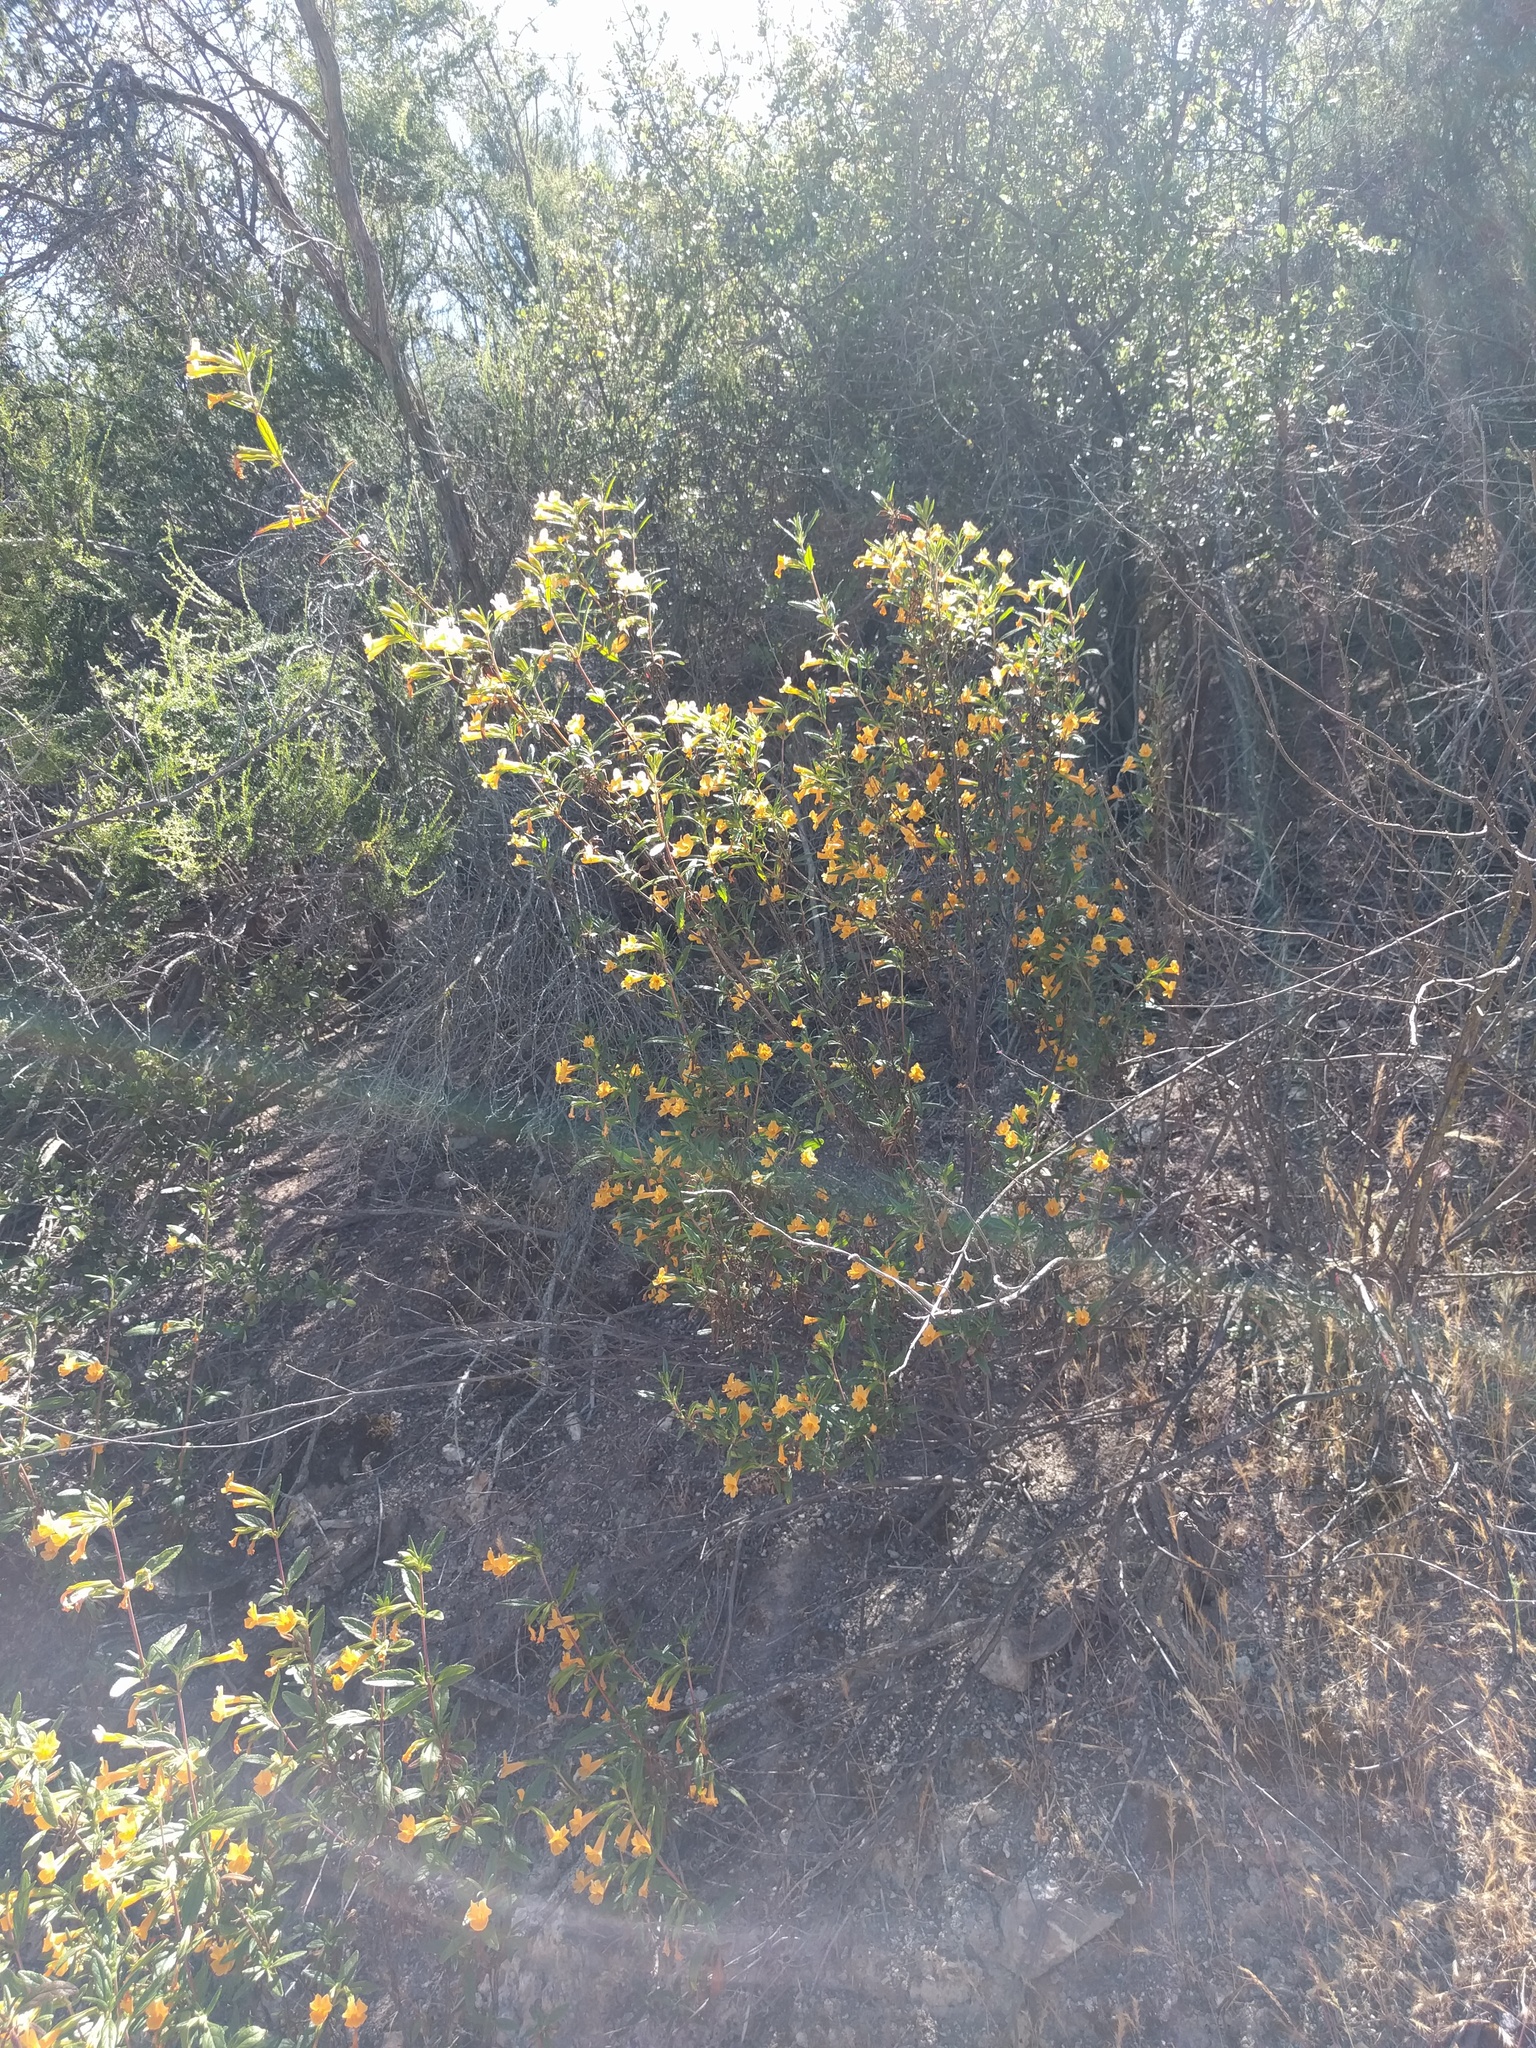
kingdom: Plantae
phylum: Tracheophyta
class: Magnoliopsida
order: Lamiales
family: Phrymaceae
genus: Diplacus
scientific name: Diplacus aurantiacus
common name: Bush monkey-flower
